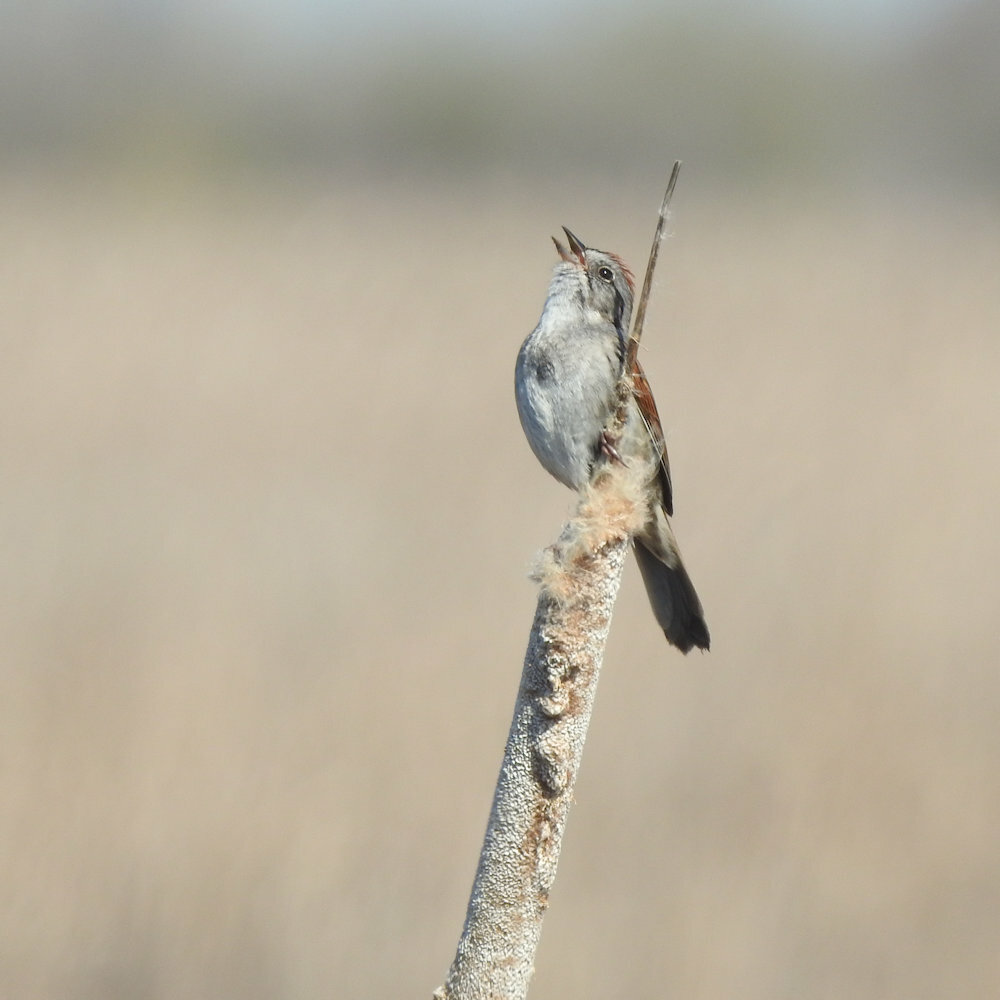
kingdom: Animalia
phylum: Chordata
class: Aves
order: Passeriformes
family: Passerellidae
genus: Melospiza
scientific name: Melospiza georgiana
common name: Swamp sparrow
